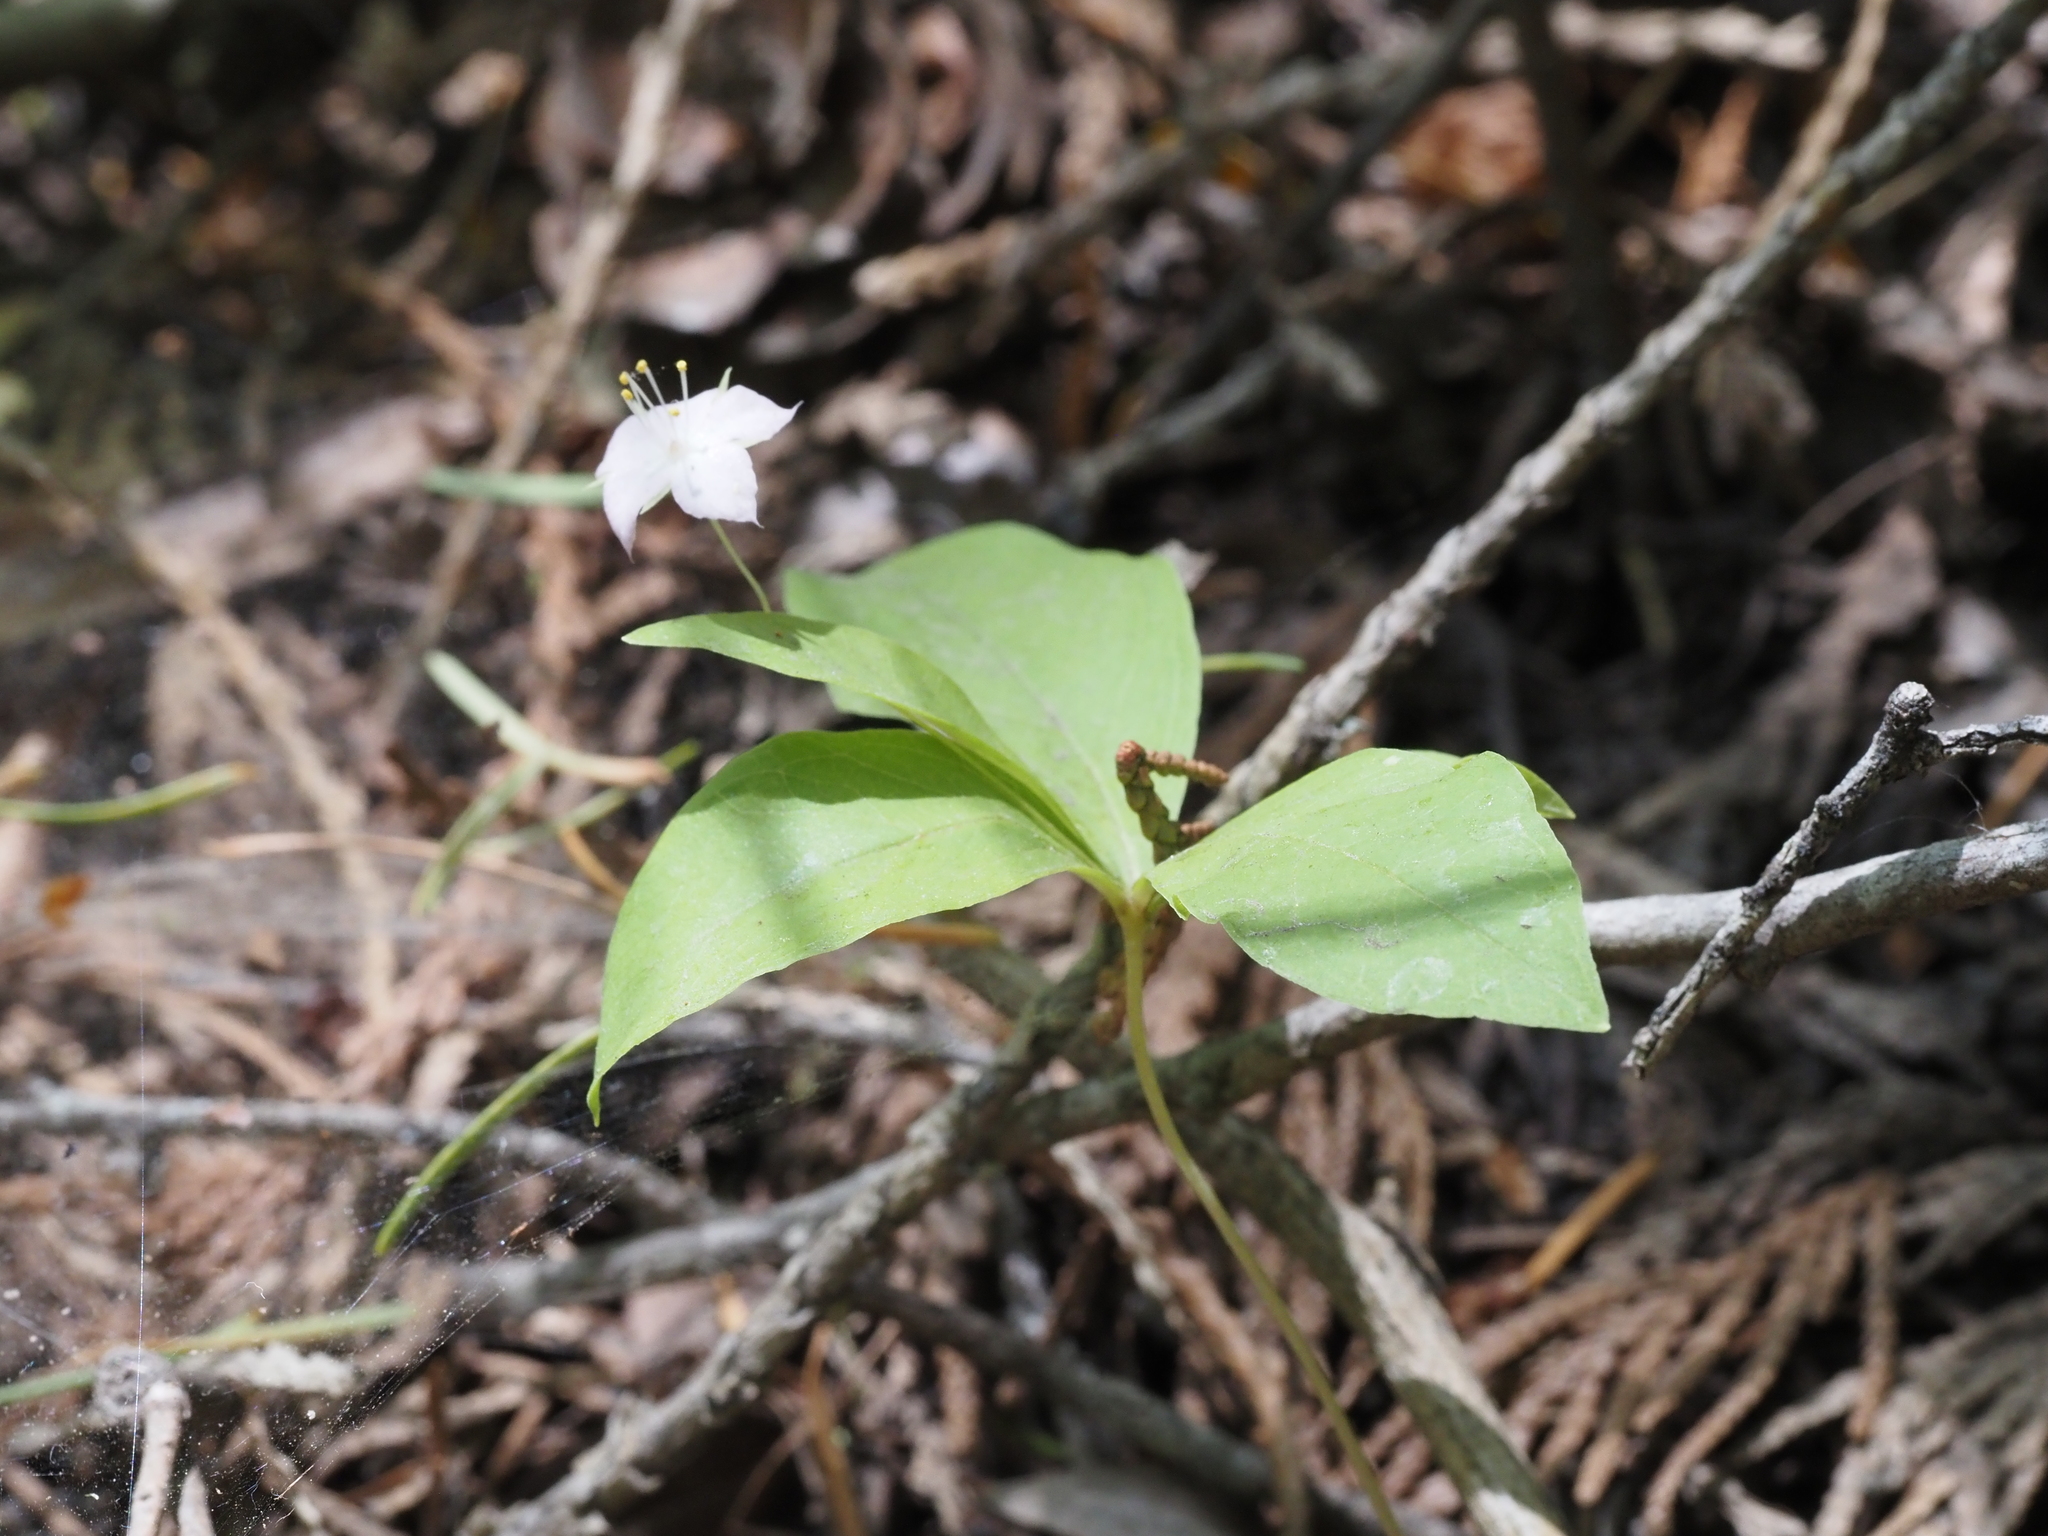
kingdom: Plantae
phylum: Tracheophyta
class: Magnoliopsida
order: Ericales
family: Primulaceae
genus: Lysimachia
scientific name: Lysimachia latifolia
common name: Pacific starflower
